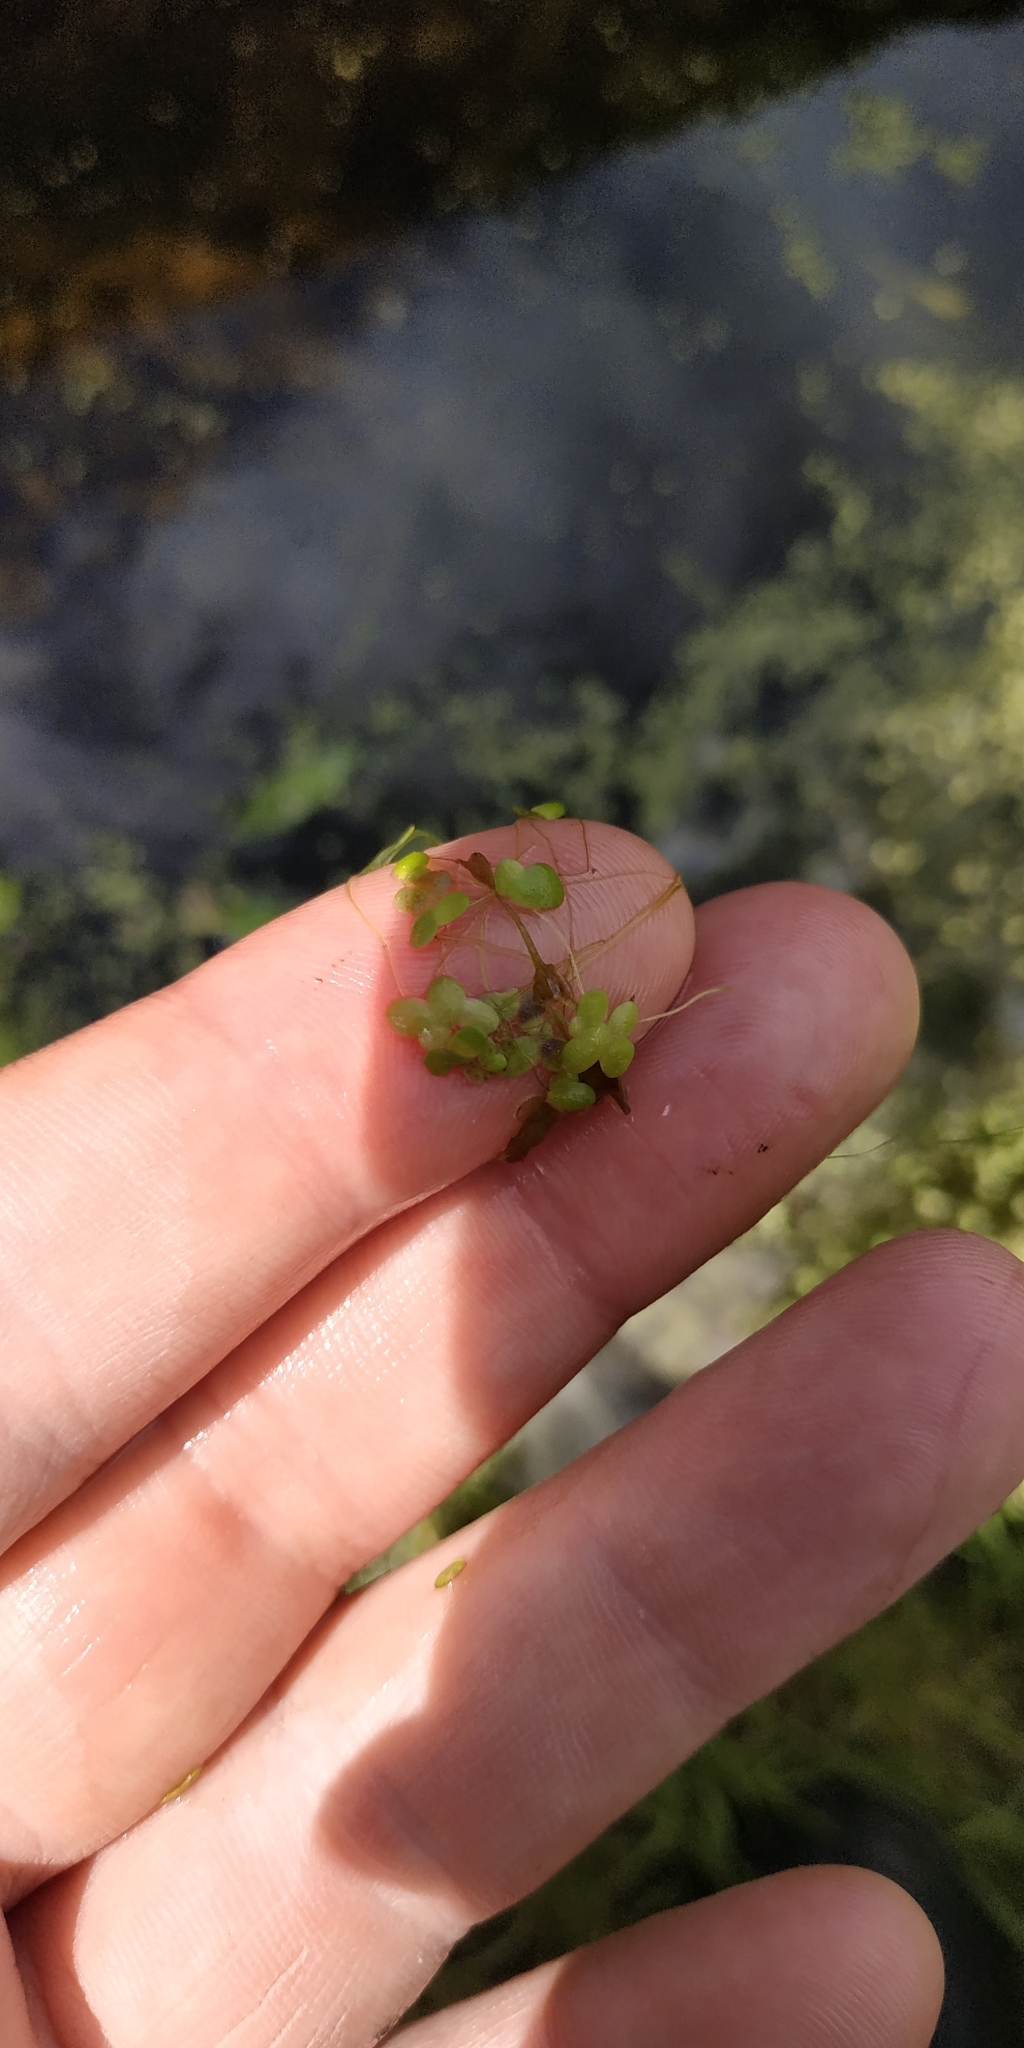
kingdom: Plantae
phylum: Tracheophyta
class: Liliopsida
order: Alismatales
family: Araceae
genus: Lemna
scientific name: Lemna minor
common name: Common duckweed
